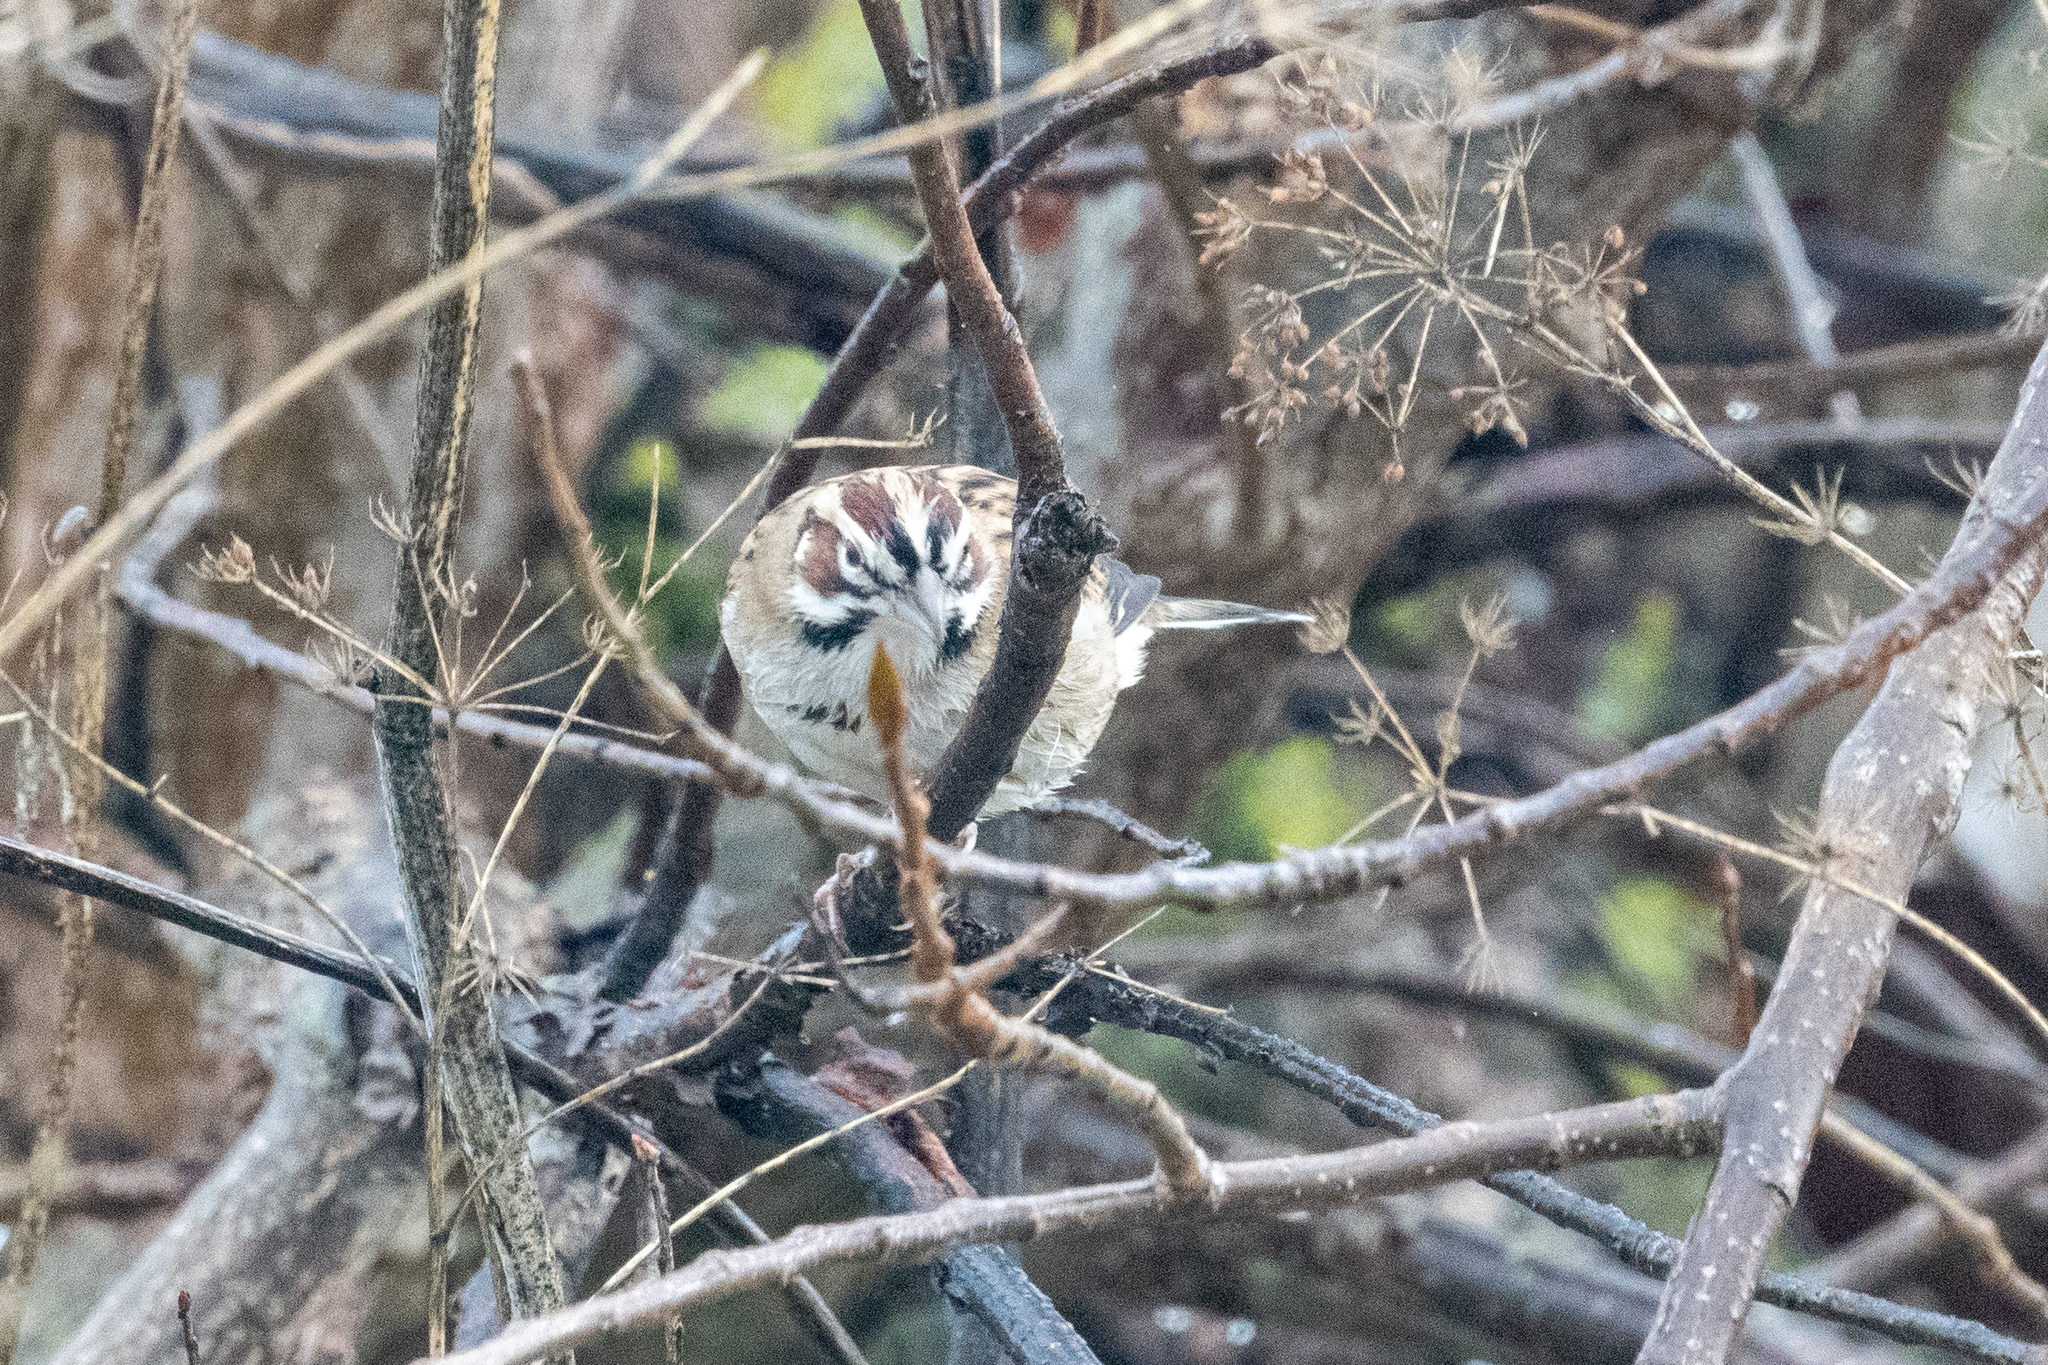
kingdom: Animalia
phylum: Chordata
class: Aves
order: Passeriformes
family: Passerellidae
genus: Chondestes
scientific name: Chondestes grammacus
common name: Lark sparrow
